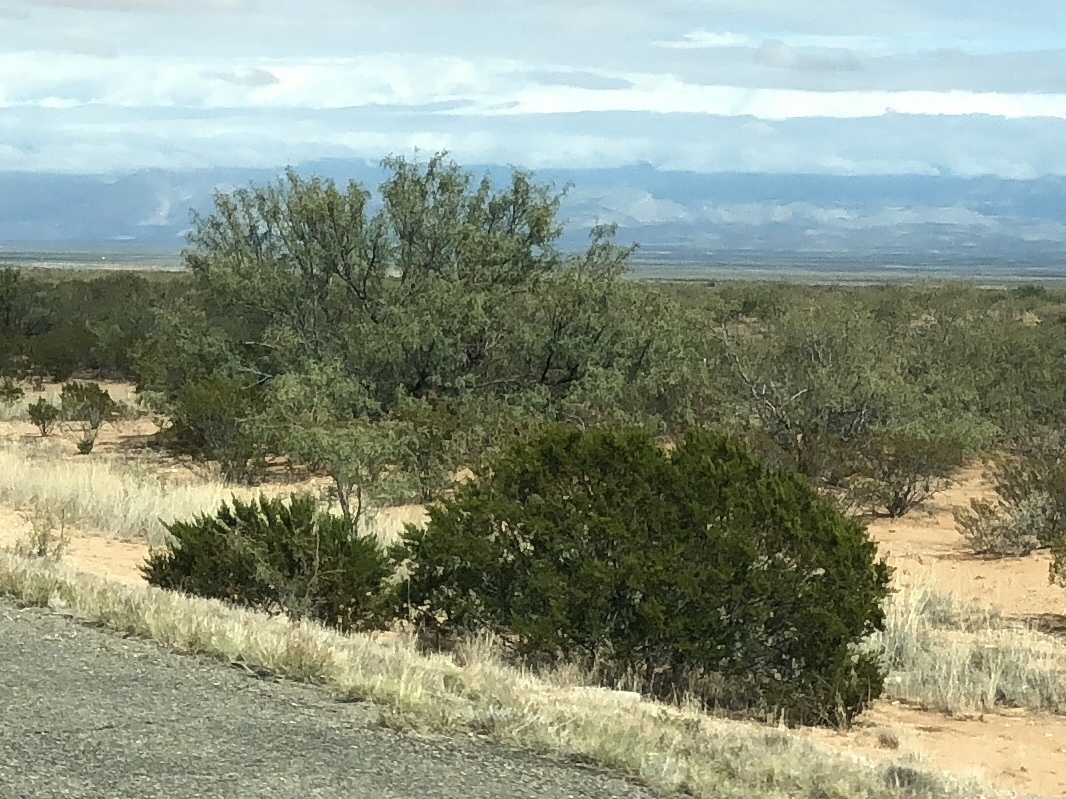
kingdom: Plantae
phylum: Tracheophyta
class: Magnoliopsida
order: Zygophyllales
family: Zygophyllaceae
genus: Larrea
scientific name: Larrea tridentata
